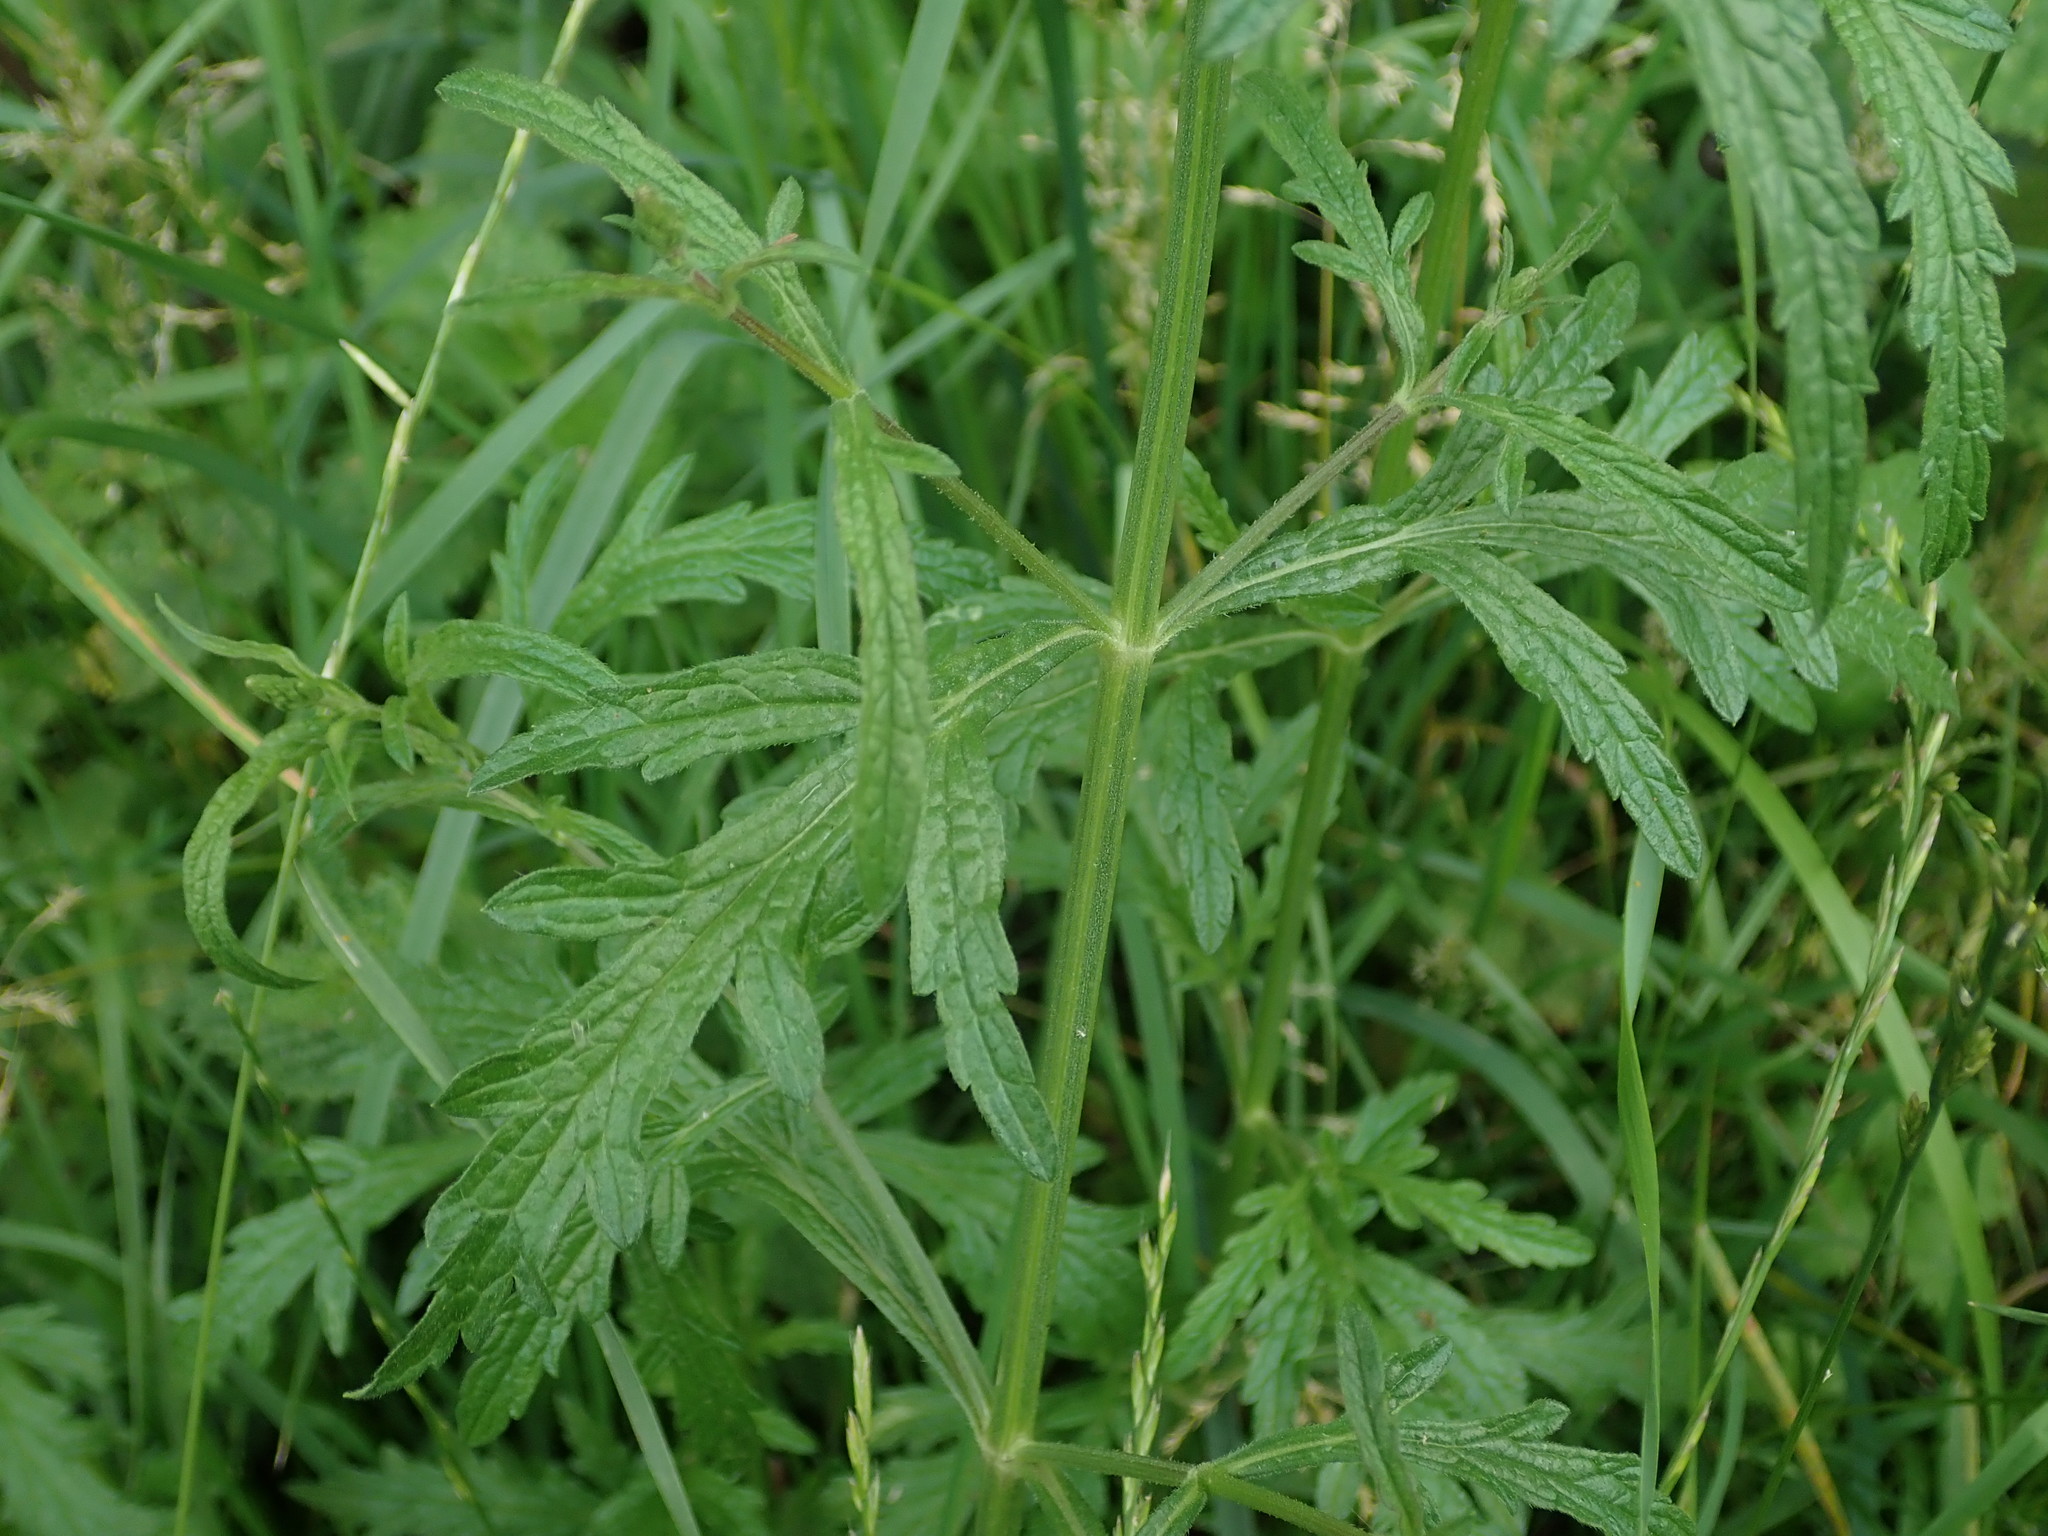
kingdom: Plantae
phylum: Tracheophyta
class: Magnoliopsida
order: Lamiales
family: Verbenaceae
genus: Verbena
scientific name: Verbena officinalis
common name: Vervain
